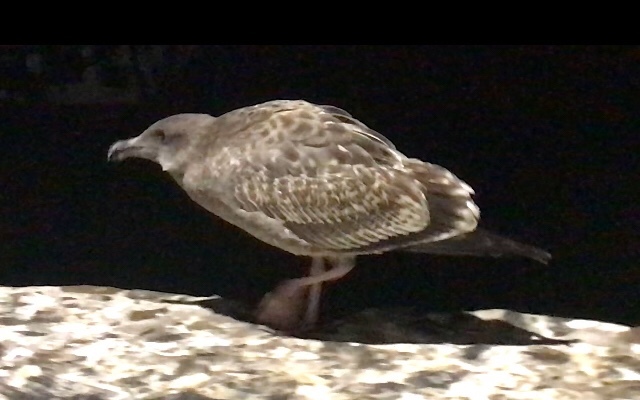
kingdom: Animalia
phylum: Chordata
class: Aves
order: Charadriiformes
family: Laridae
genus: Larus
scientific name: Larus occidentalis
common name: Western gull
